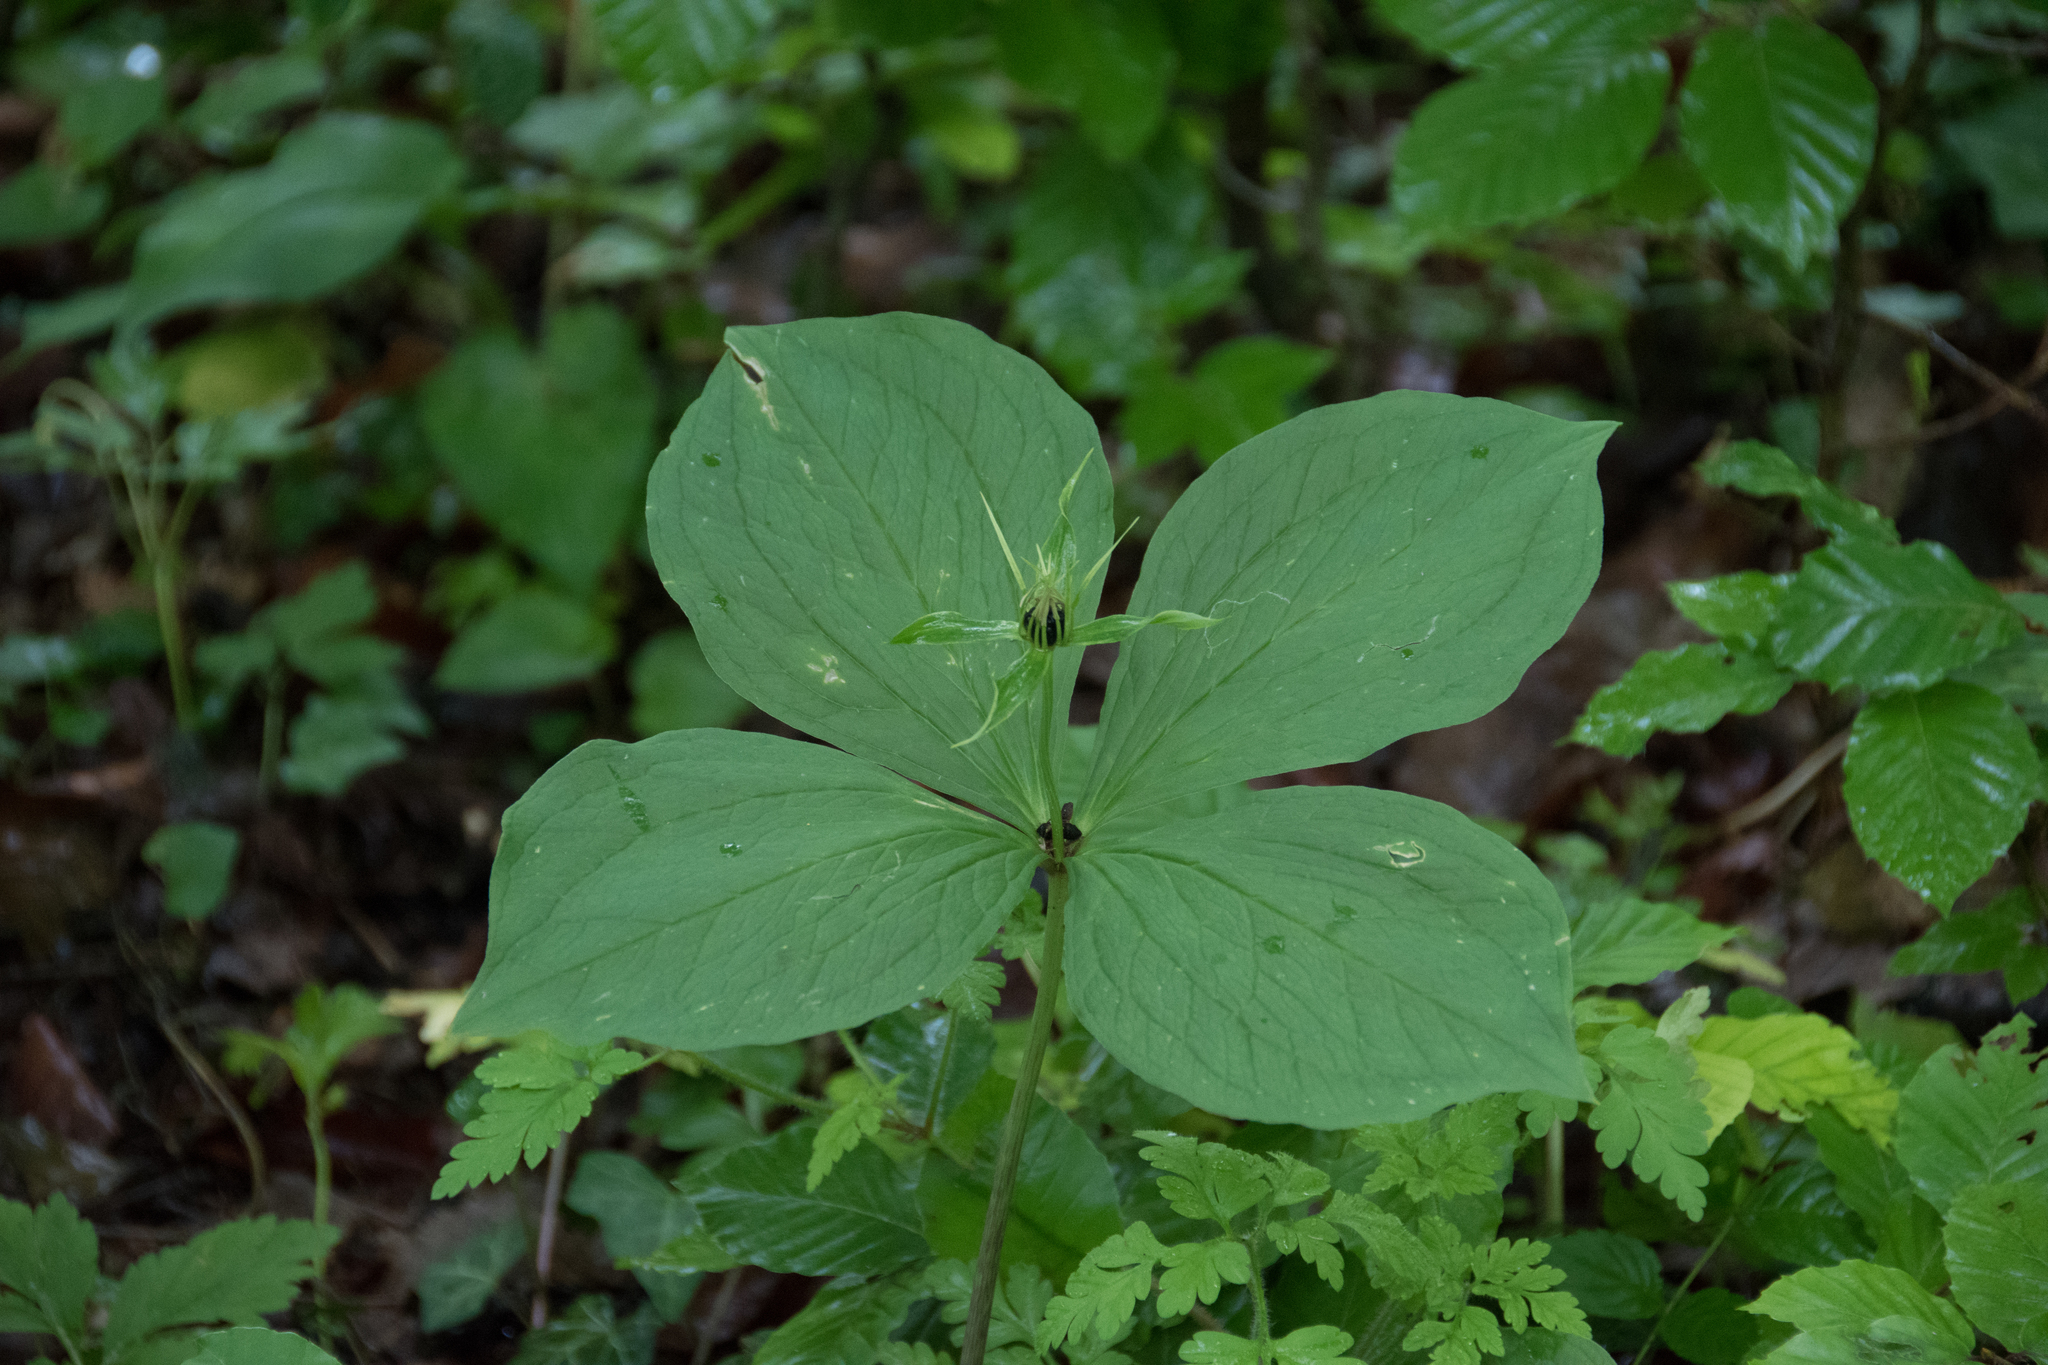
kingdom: Plantae
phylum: Tracheophyta
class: Liliopsida
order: Liliales
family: Melanthiaceae
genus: Paris
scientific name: Paris quadrifolia
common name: Herb-paris
